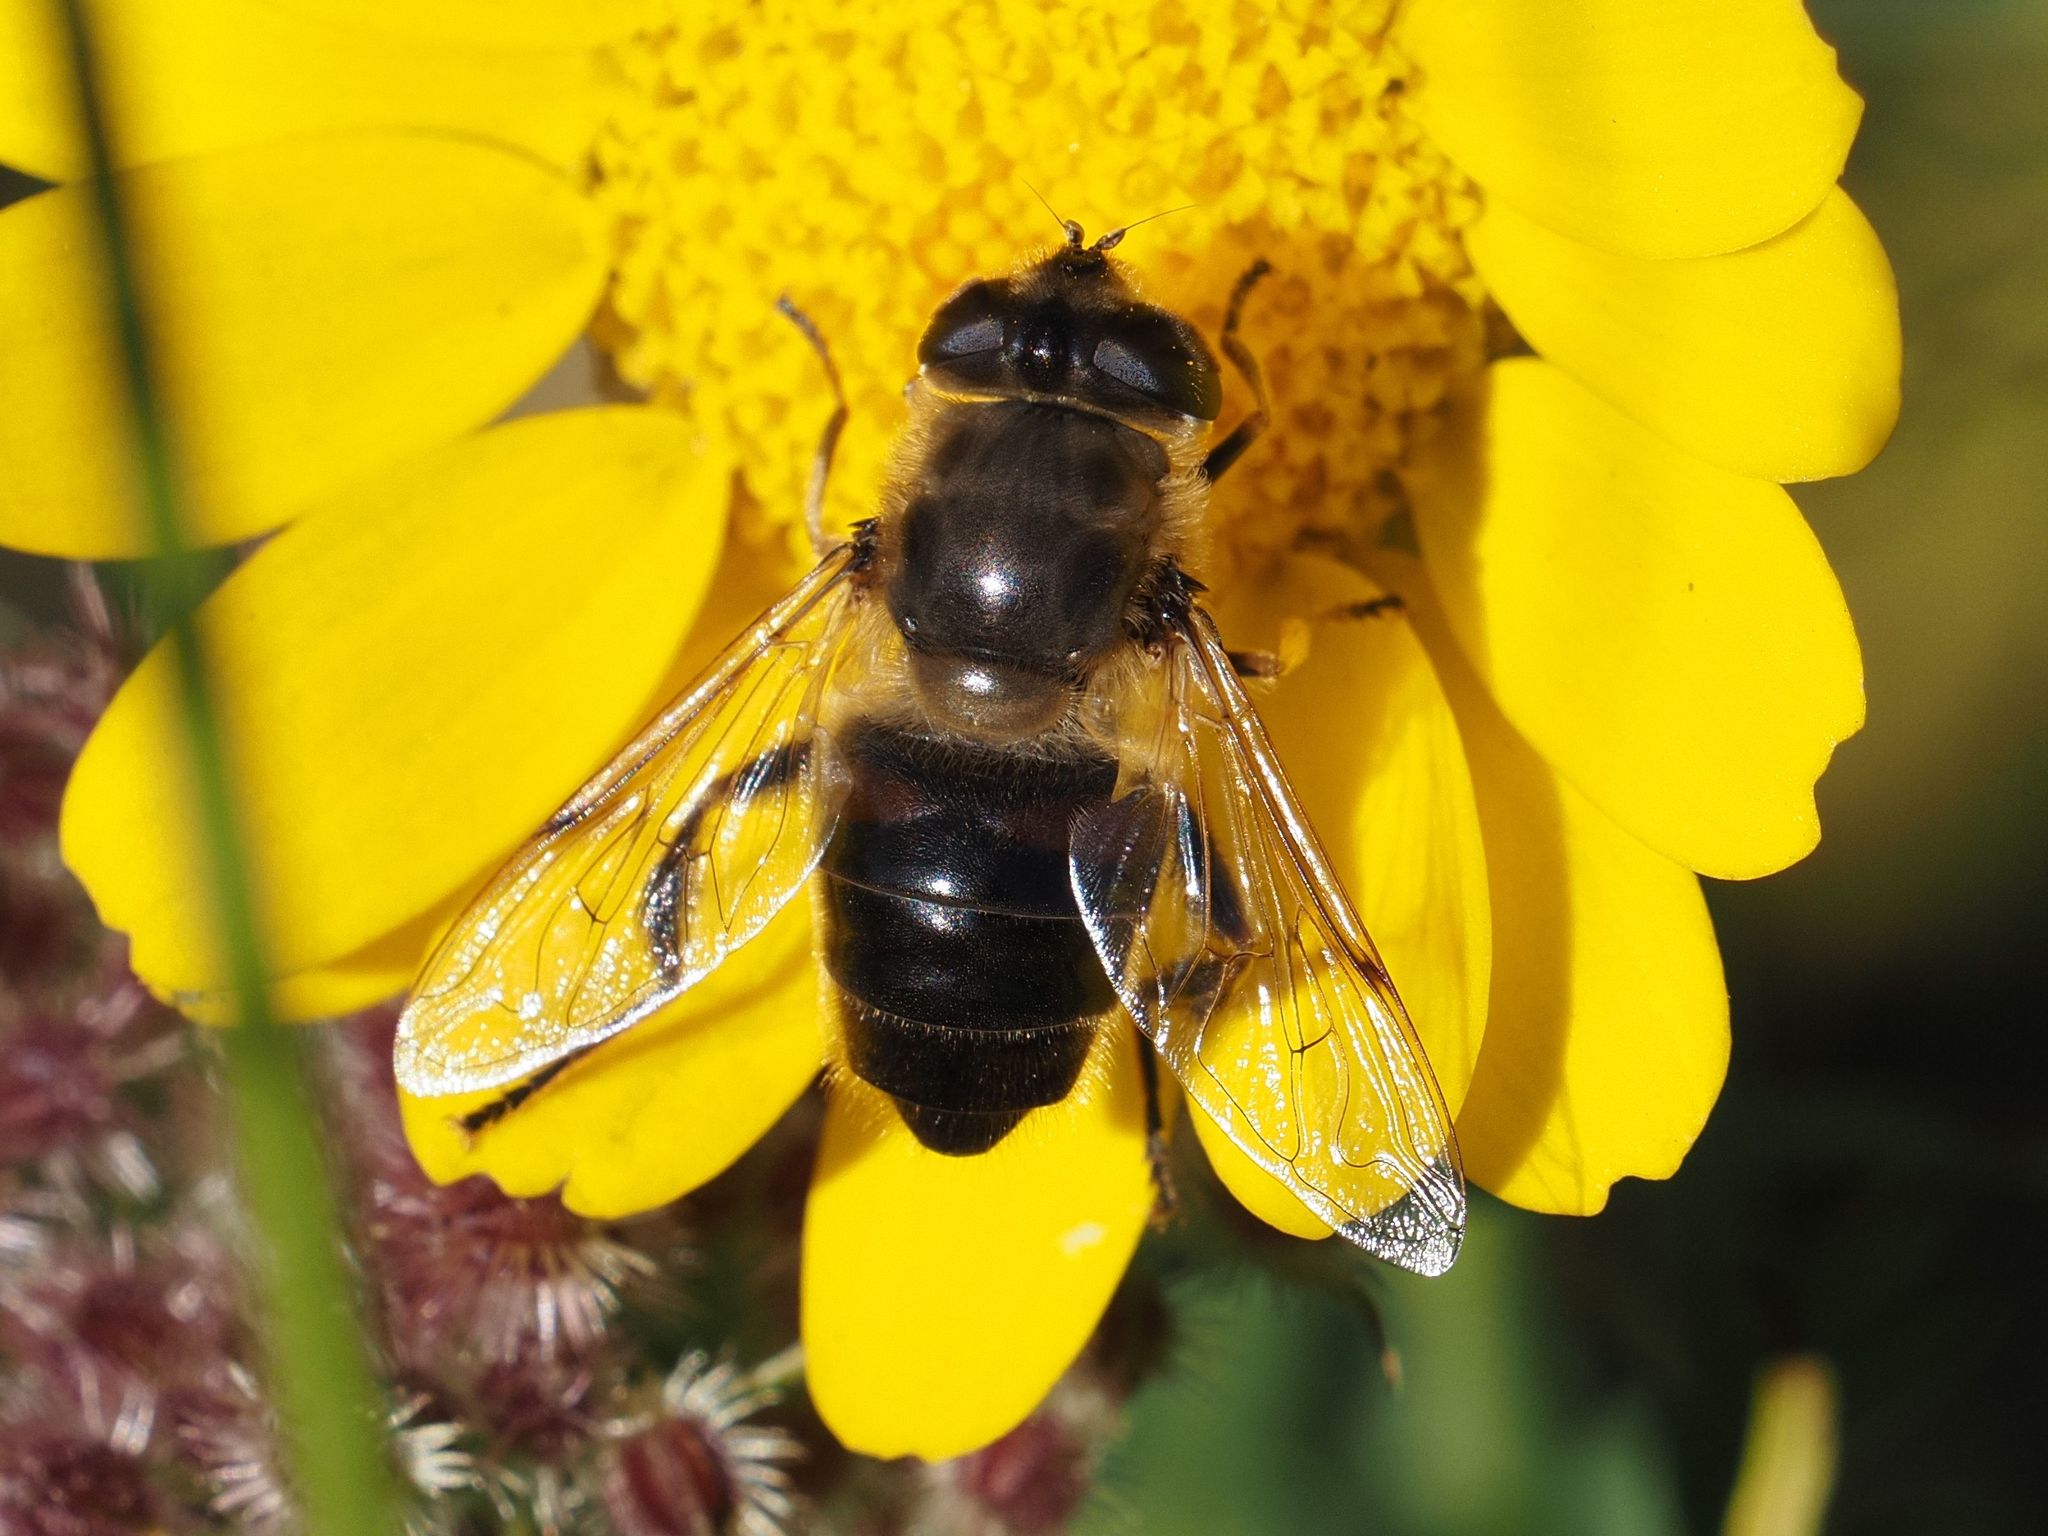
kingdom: Animalia
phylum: Arthropoda
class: Insecta
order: Diptera
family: Syrphidae
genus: Eristalis
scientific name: Eristalis tenax
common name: Drone fly
